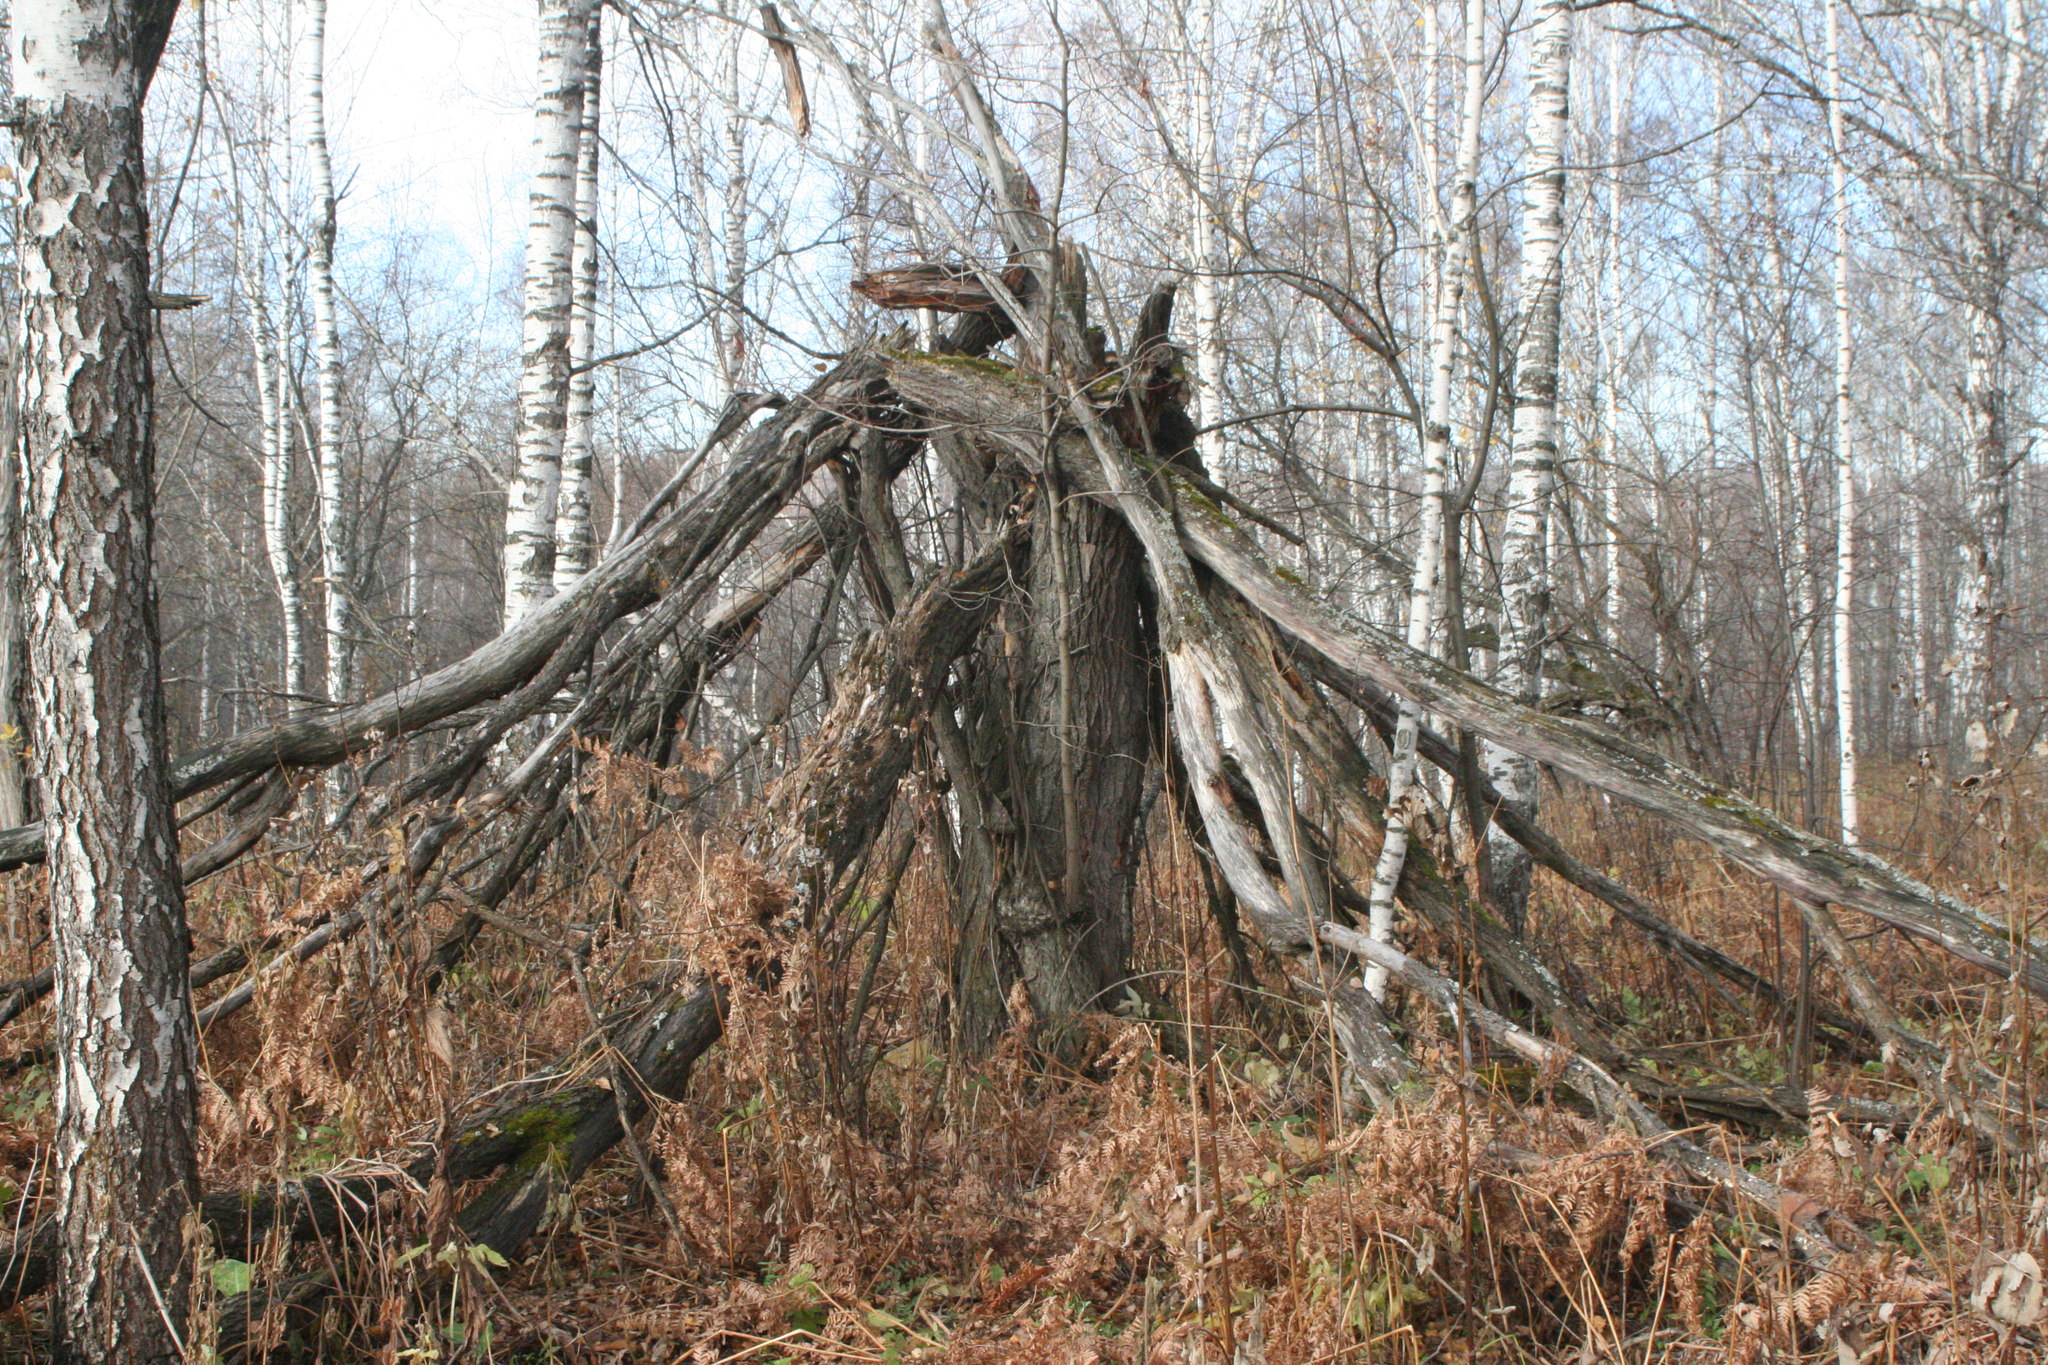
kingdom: Plantae
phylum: Tracheophyta
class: Magnoliopsida
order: Rosales
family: Rosaceae
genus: Prunus
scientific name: Prunus padus
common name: Bird cherry
